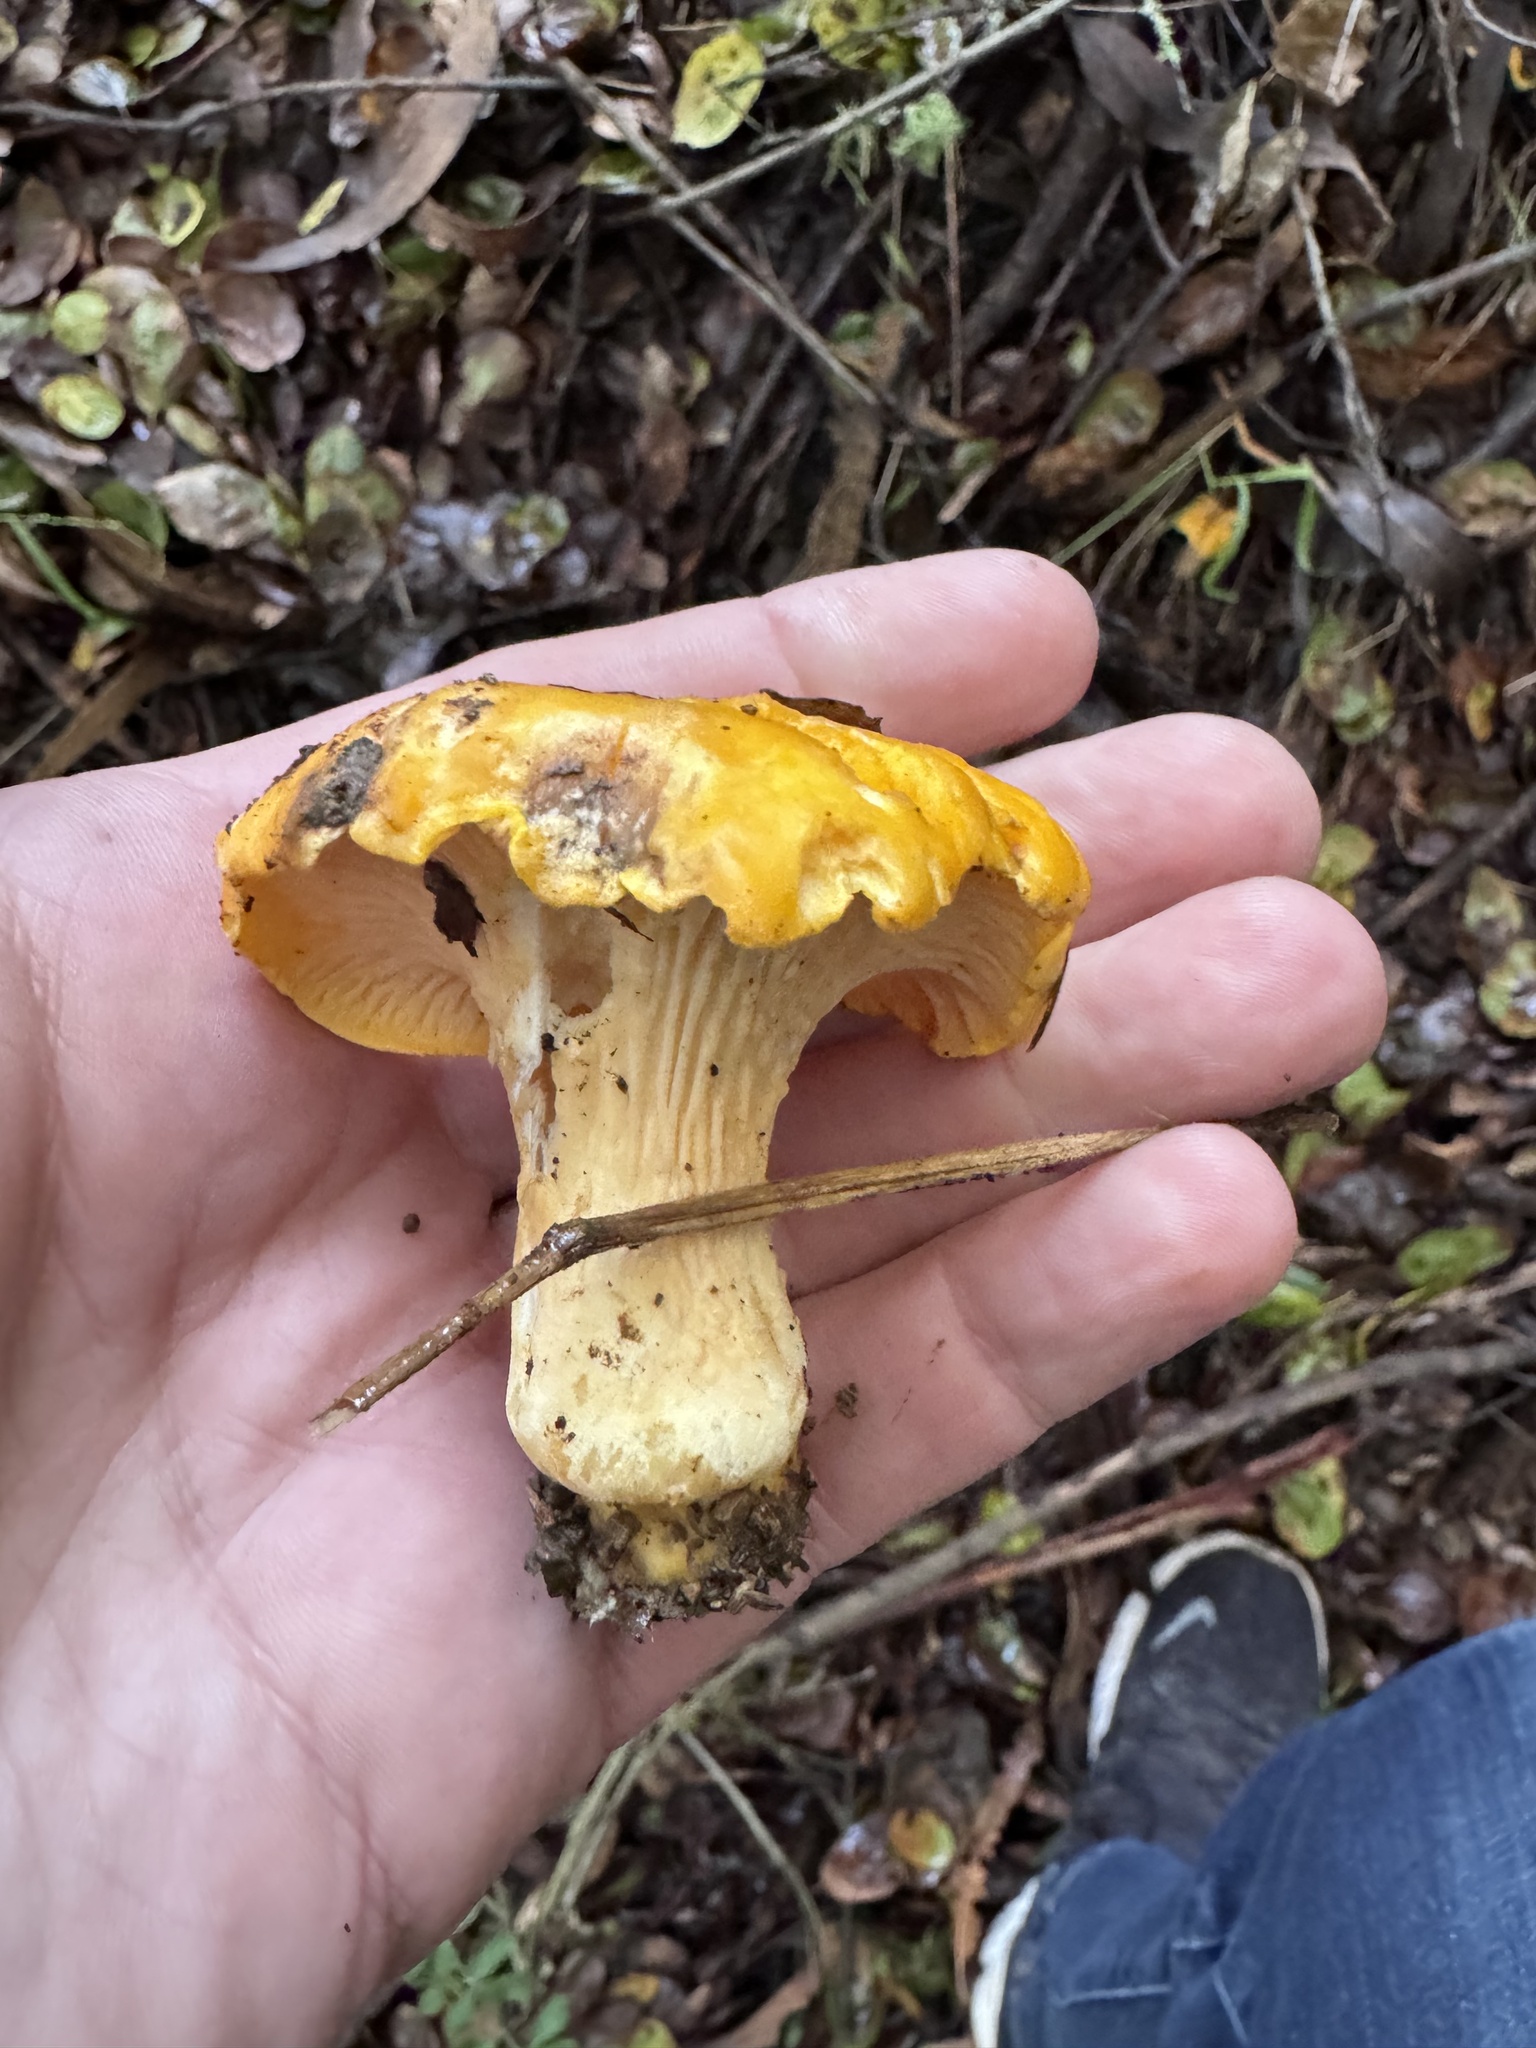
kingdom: Fungi
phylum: Basidiomycota
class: Agaricomycetes
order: Cantharellales
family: Hydnaceae
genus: Cantharellus
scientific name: Cantharellus californicus
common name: California golden chanterelle
